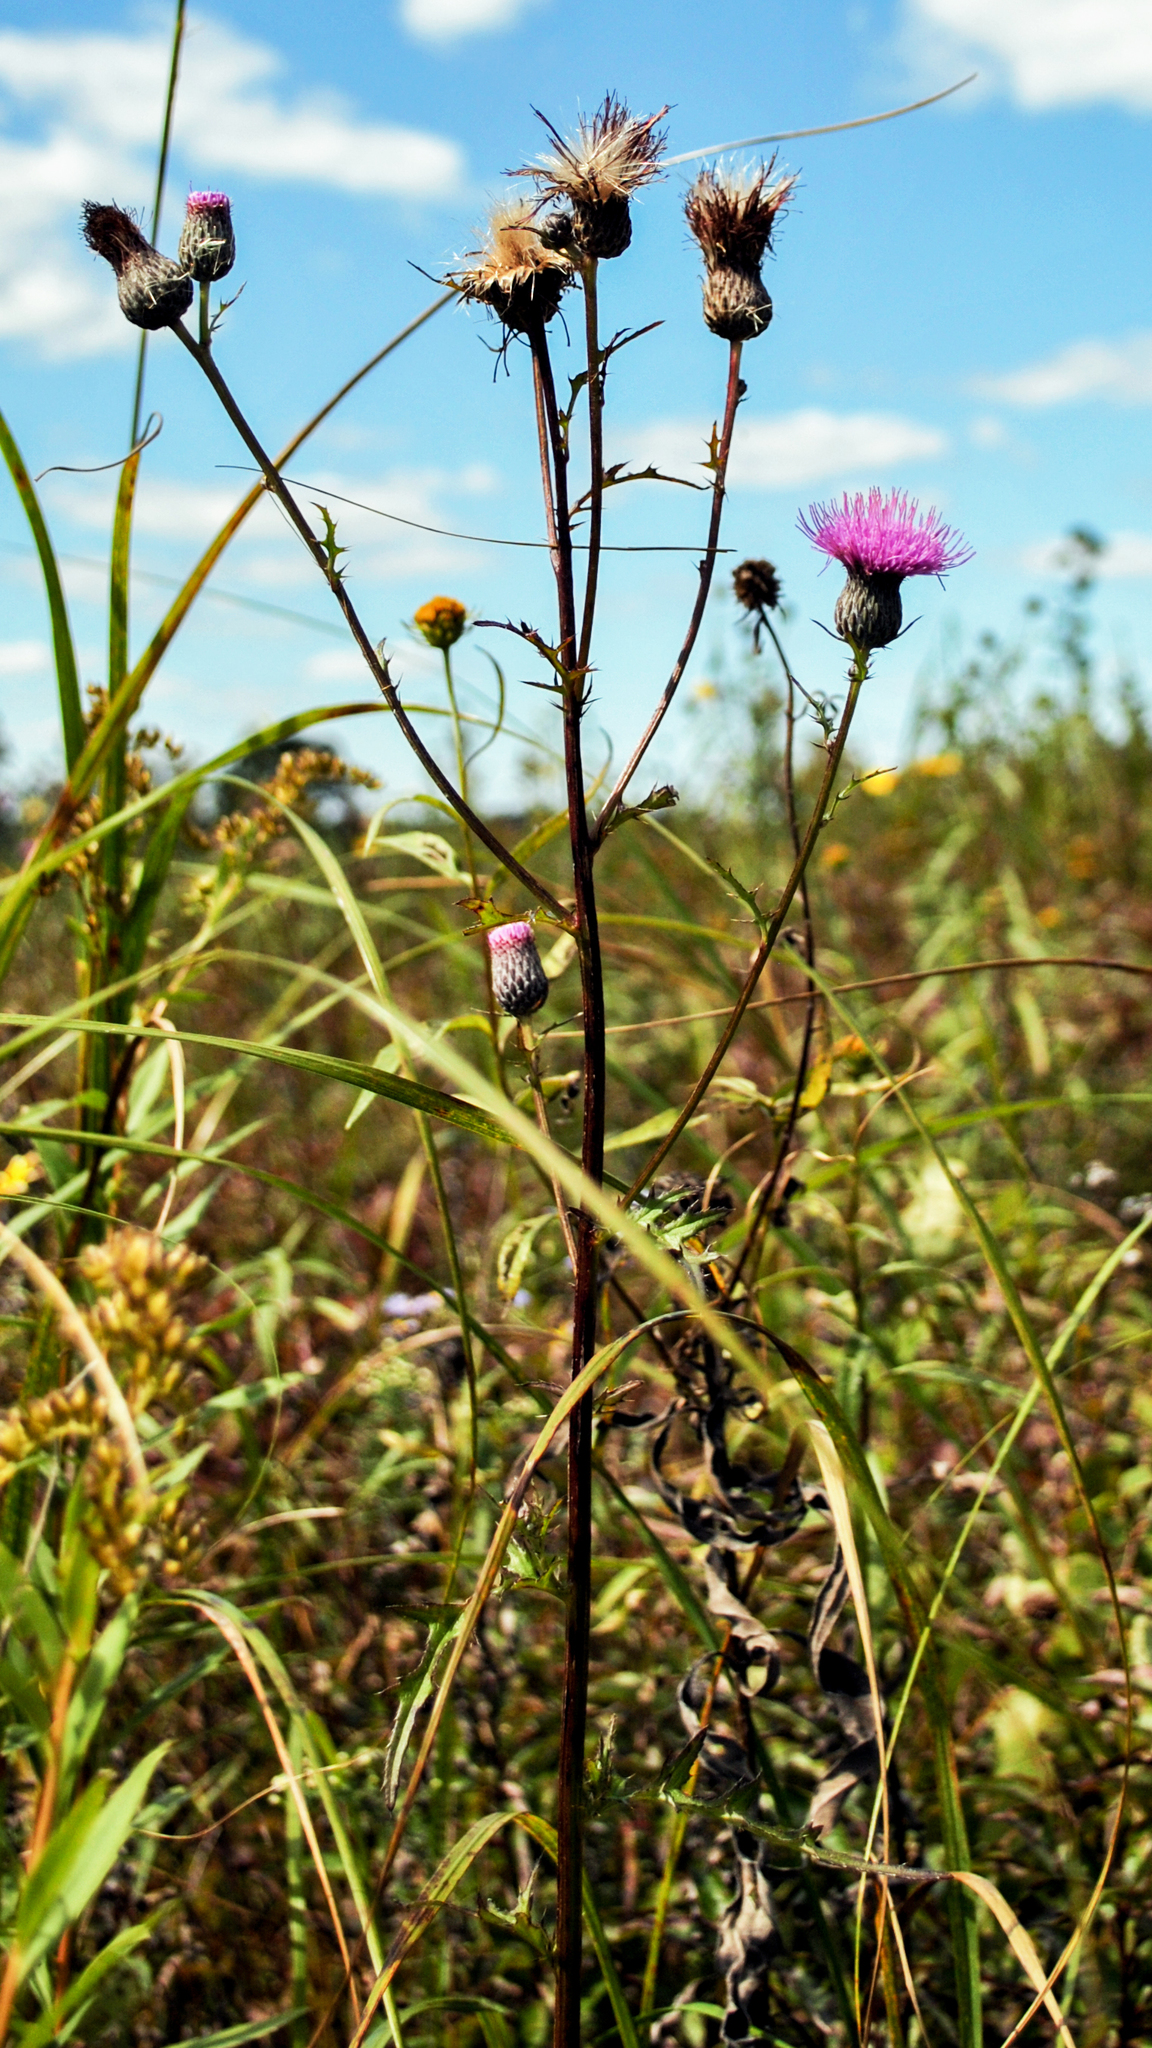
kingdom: Plantae
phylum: Tracheophyta
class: Magnoliopsida
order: Asterales
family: Asteraceae
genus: Cirsium
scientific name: Cirsium muticum
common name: Dunce-nettle
